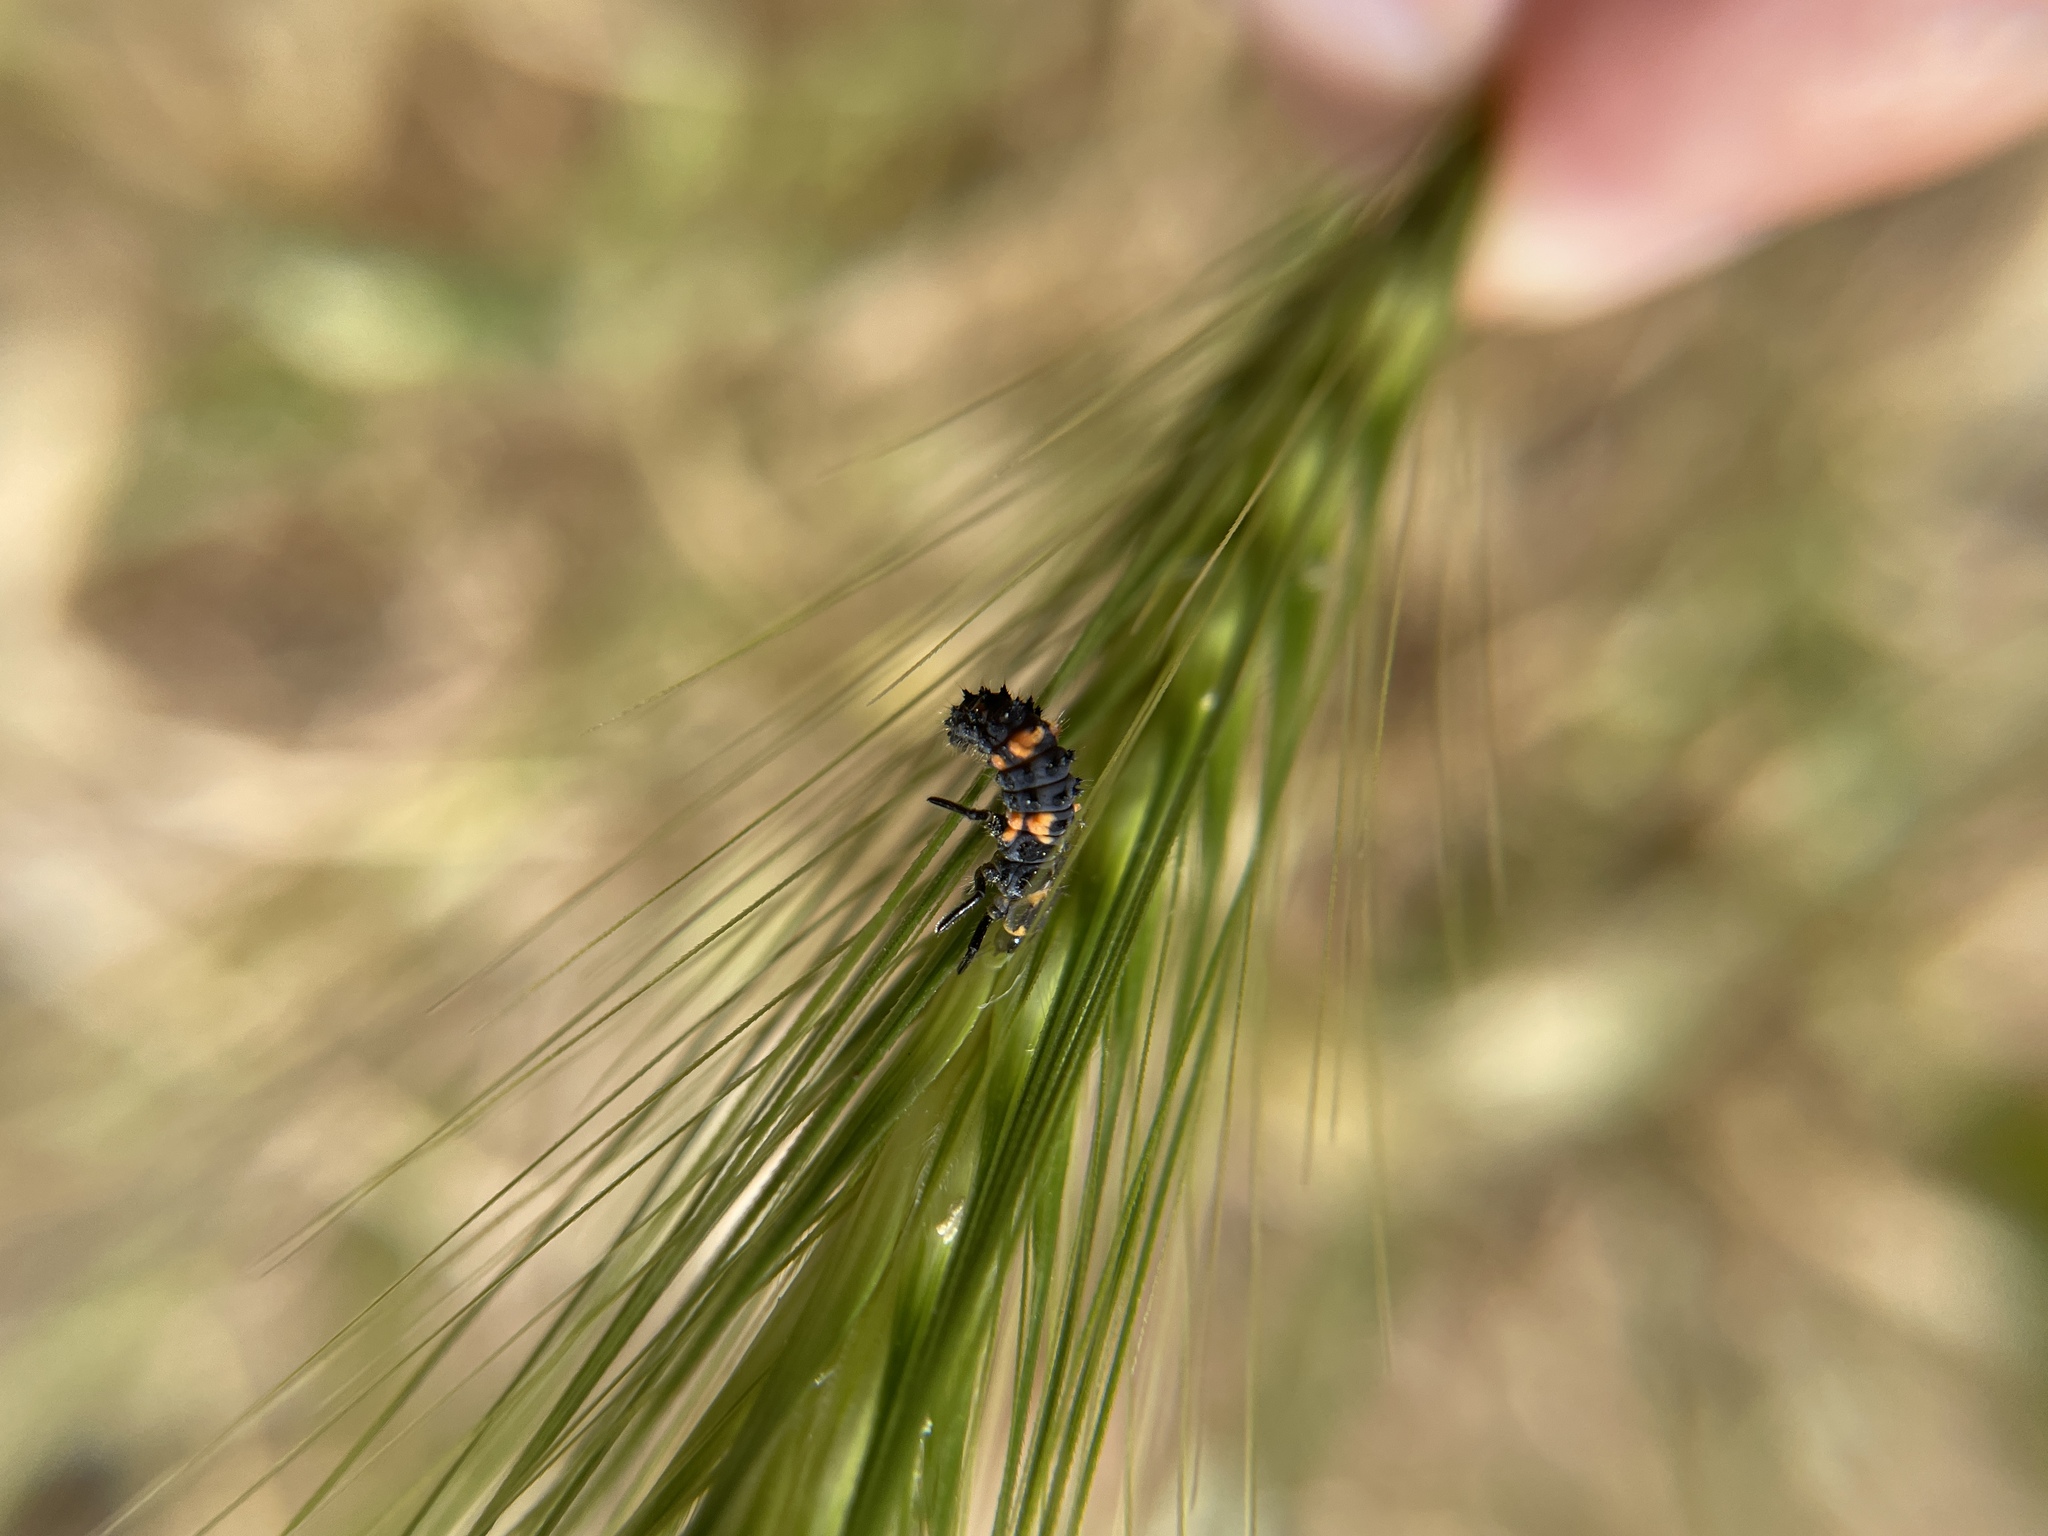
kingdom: Animalia
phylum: Arthropoda
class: Insecta
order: Coleoptera
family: Coccinellidae
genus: Hippodamia
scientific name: Hippodamia convergens
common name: Convergent lady beetle
